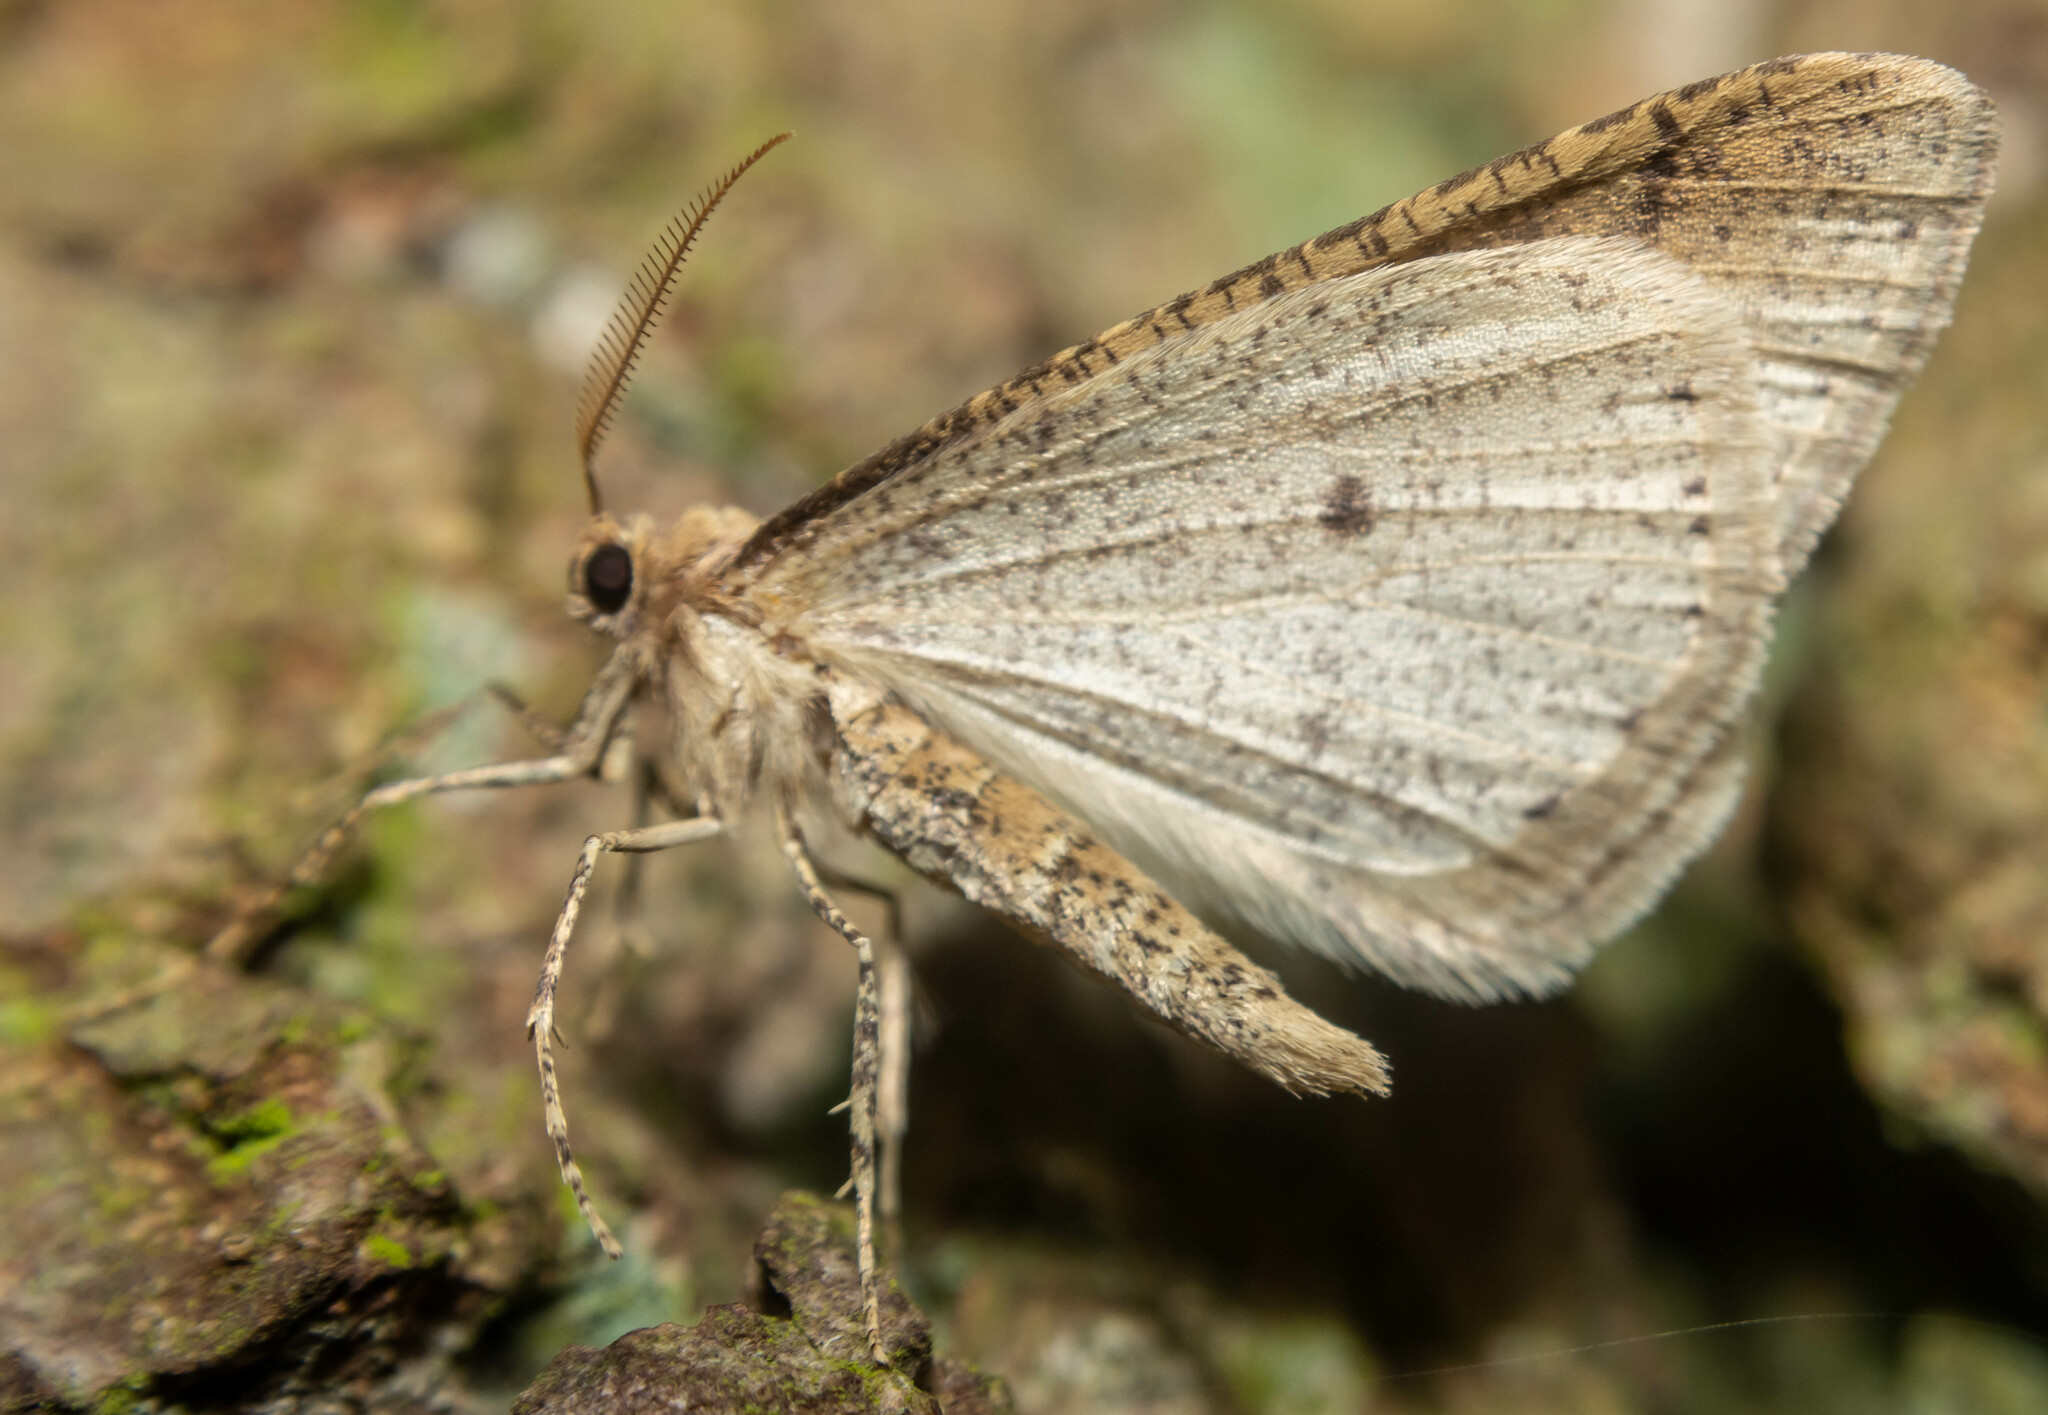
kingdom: Animalia
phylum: Arthropoda
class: Insecta
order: Lepidoptera
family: Geometridae
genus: Agriopis
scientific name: Agriopis marginaria
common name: Dotted border
